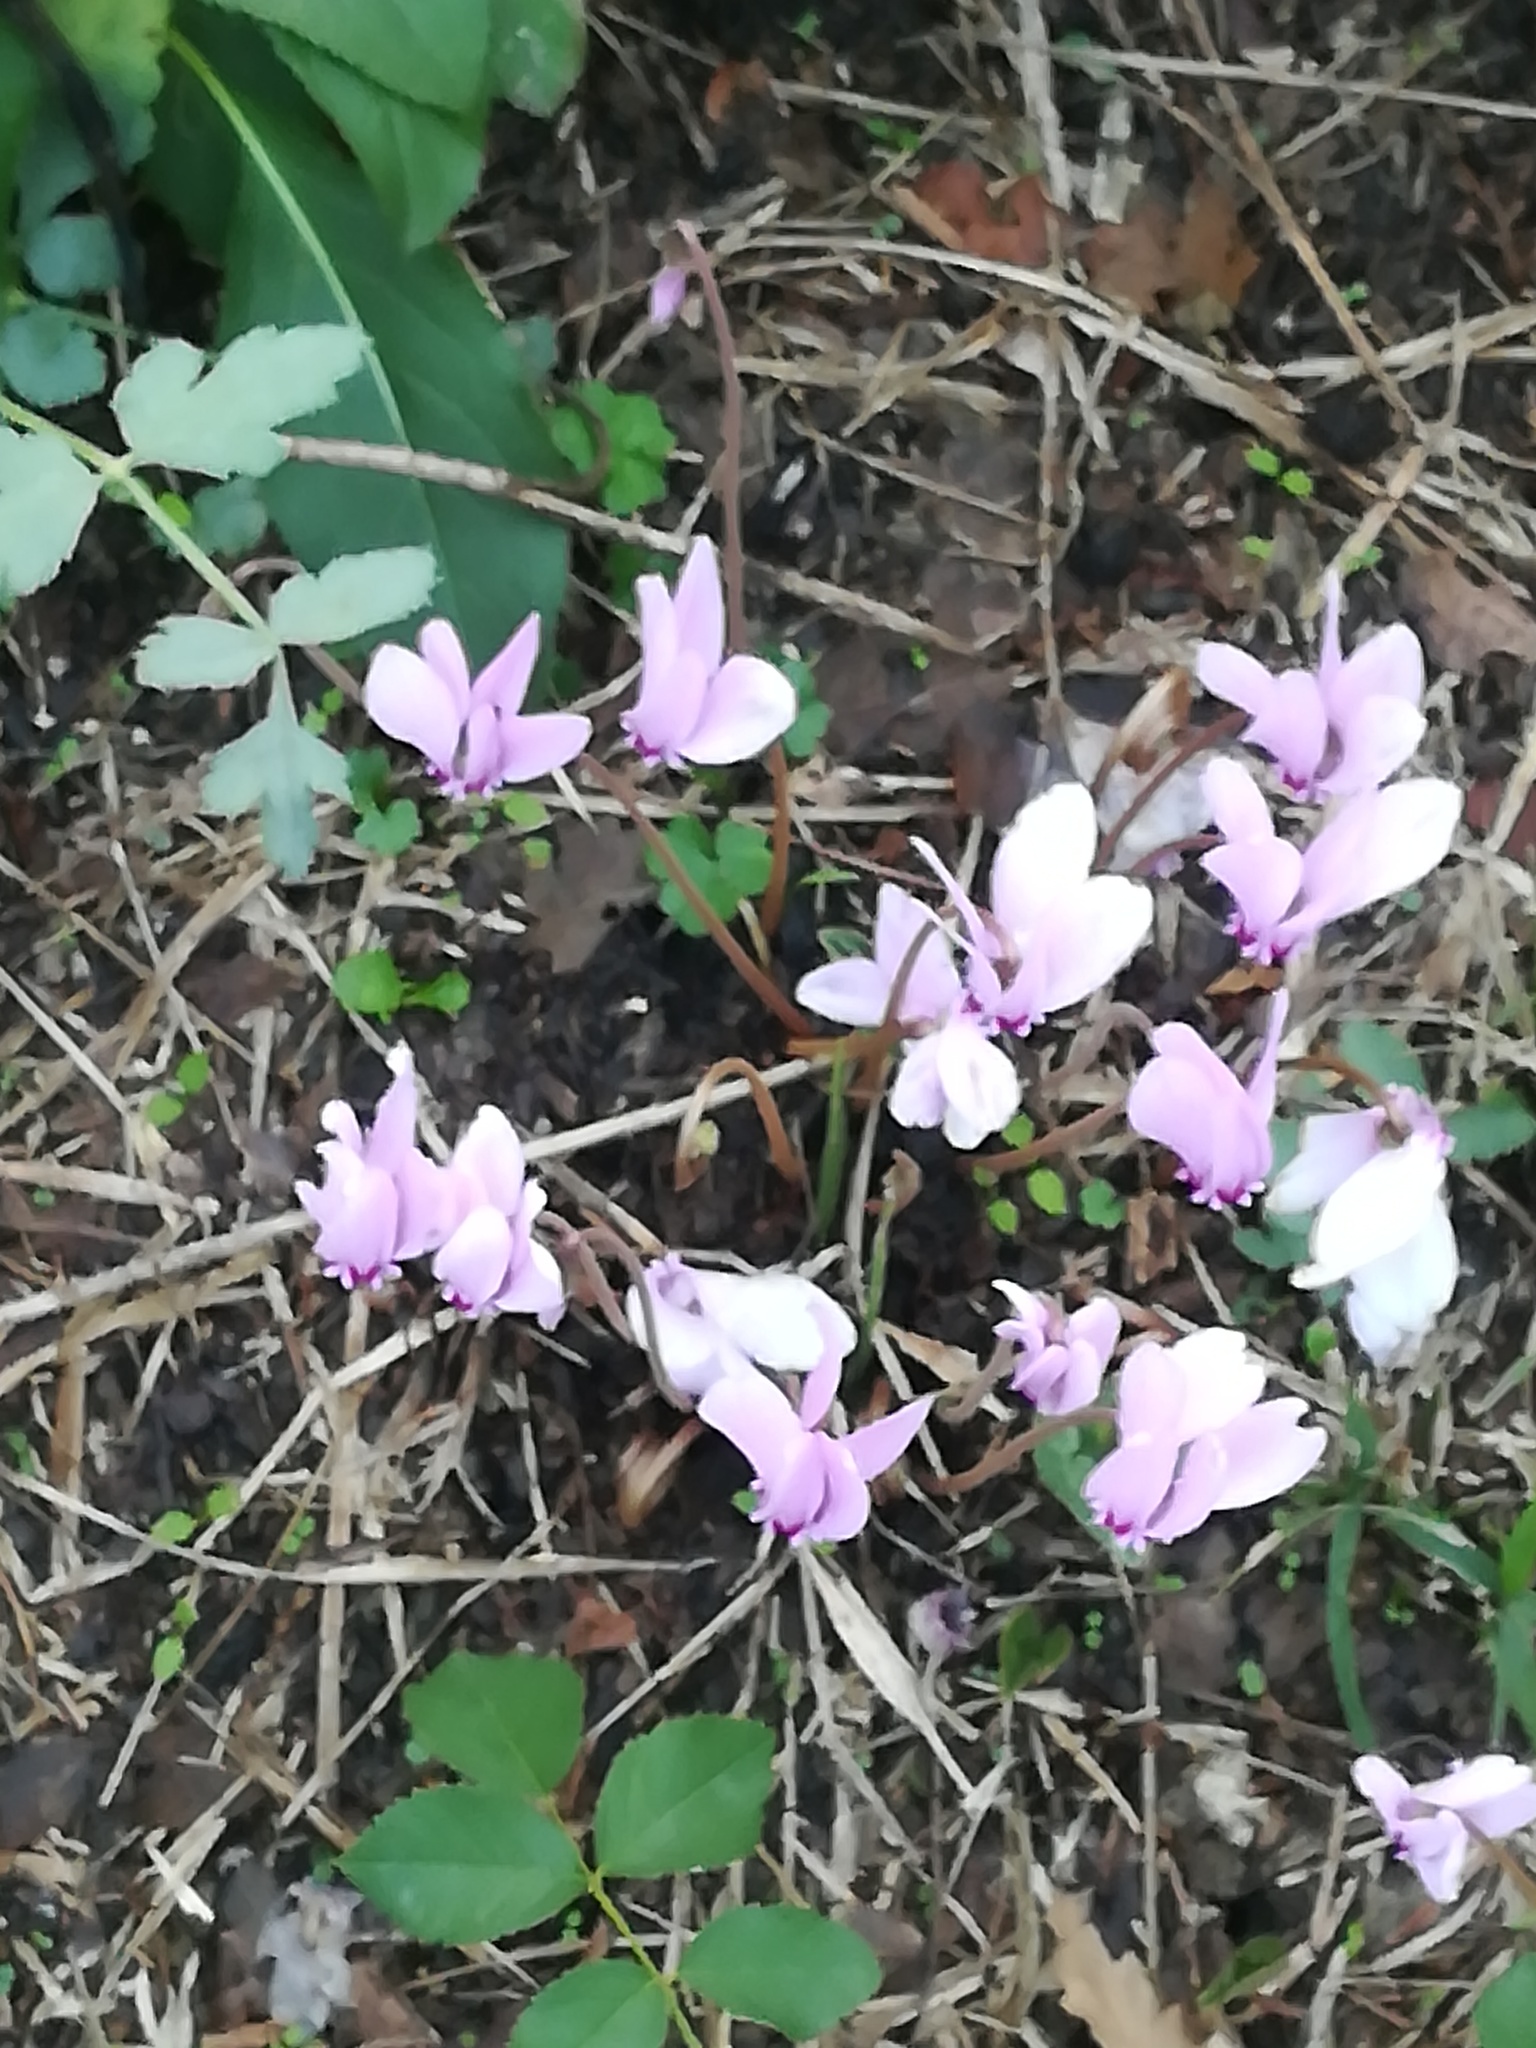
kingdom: Plantae
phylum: Tracheophyta
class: Magnoliopsida
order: Ericales
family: Primulaceae
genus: Cyclamen
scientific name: Cyclamen hederifolium
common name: Sowbread
